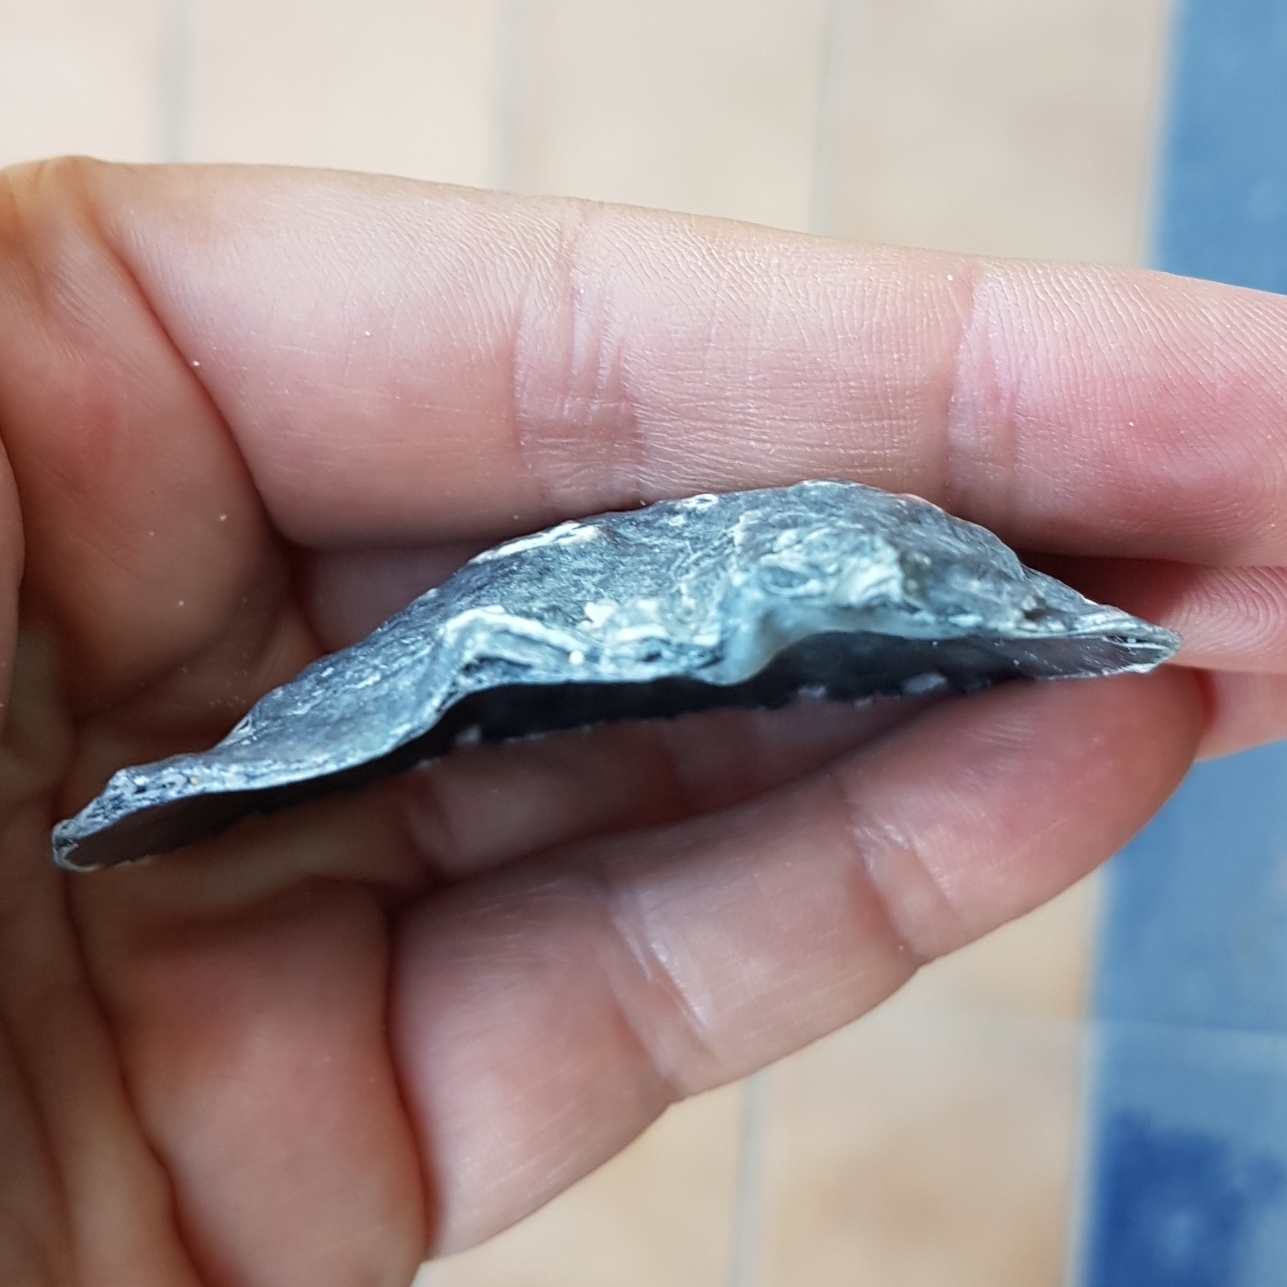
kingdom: Animalia
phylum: Mollusca
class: Bivalvia
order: Ostreida
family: Ostreidae
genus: Ostrea
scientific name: Ostrea edulis
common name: Flat oyster
